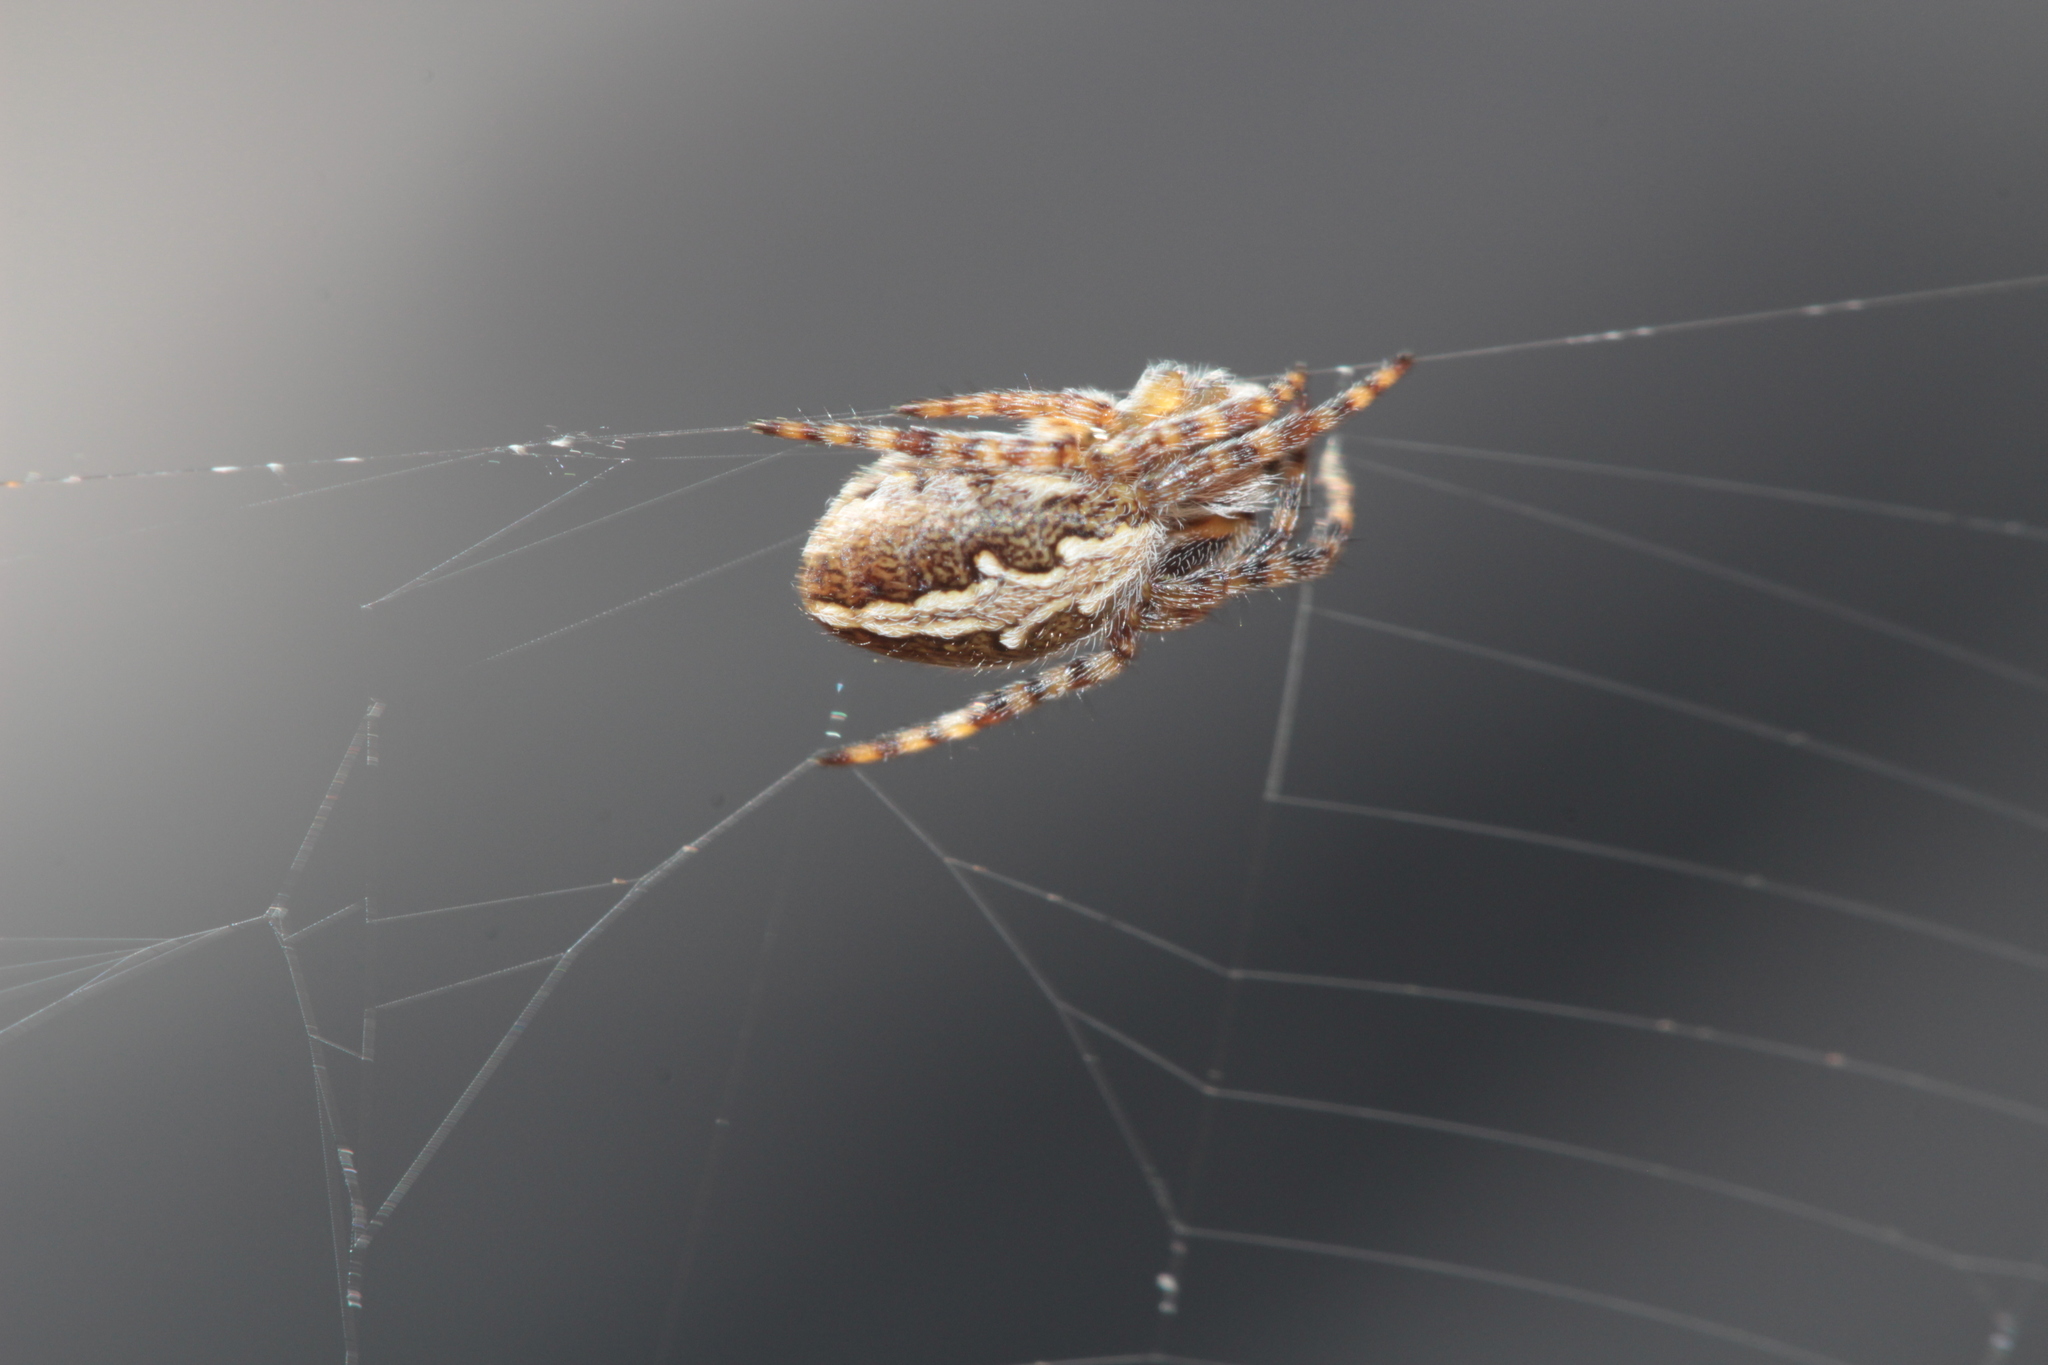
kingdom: Animalia
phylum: Arthropoda
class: Arachnida
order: Araneae
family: Araneidae
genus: Aculepeira
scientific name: Aculepeira ceropegia
